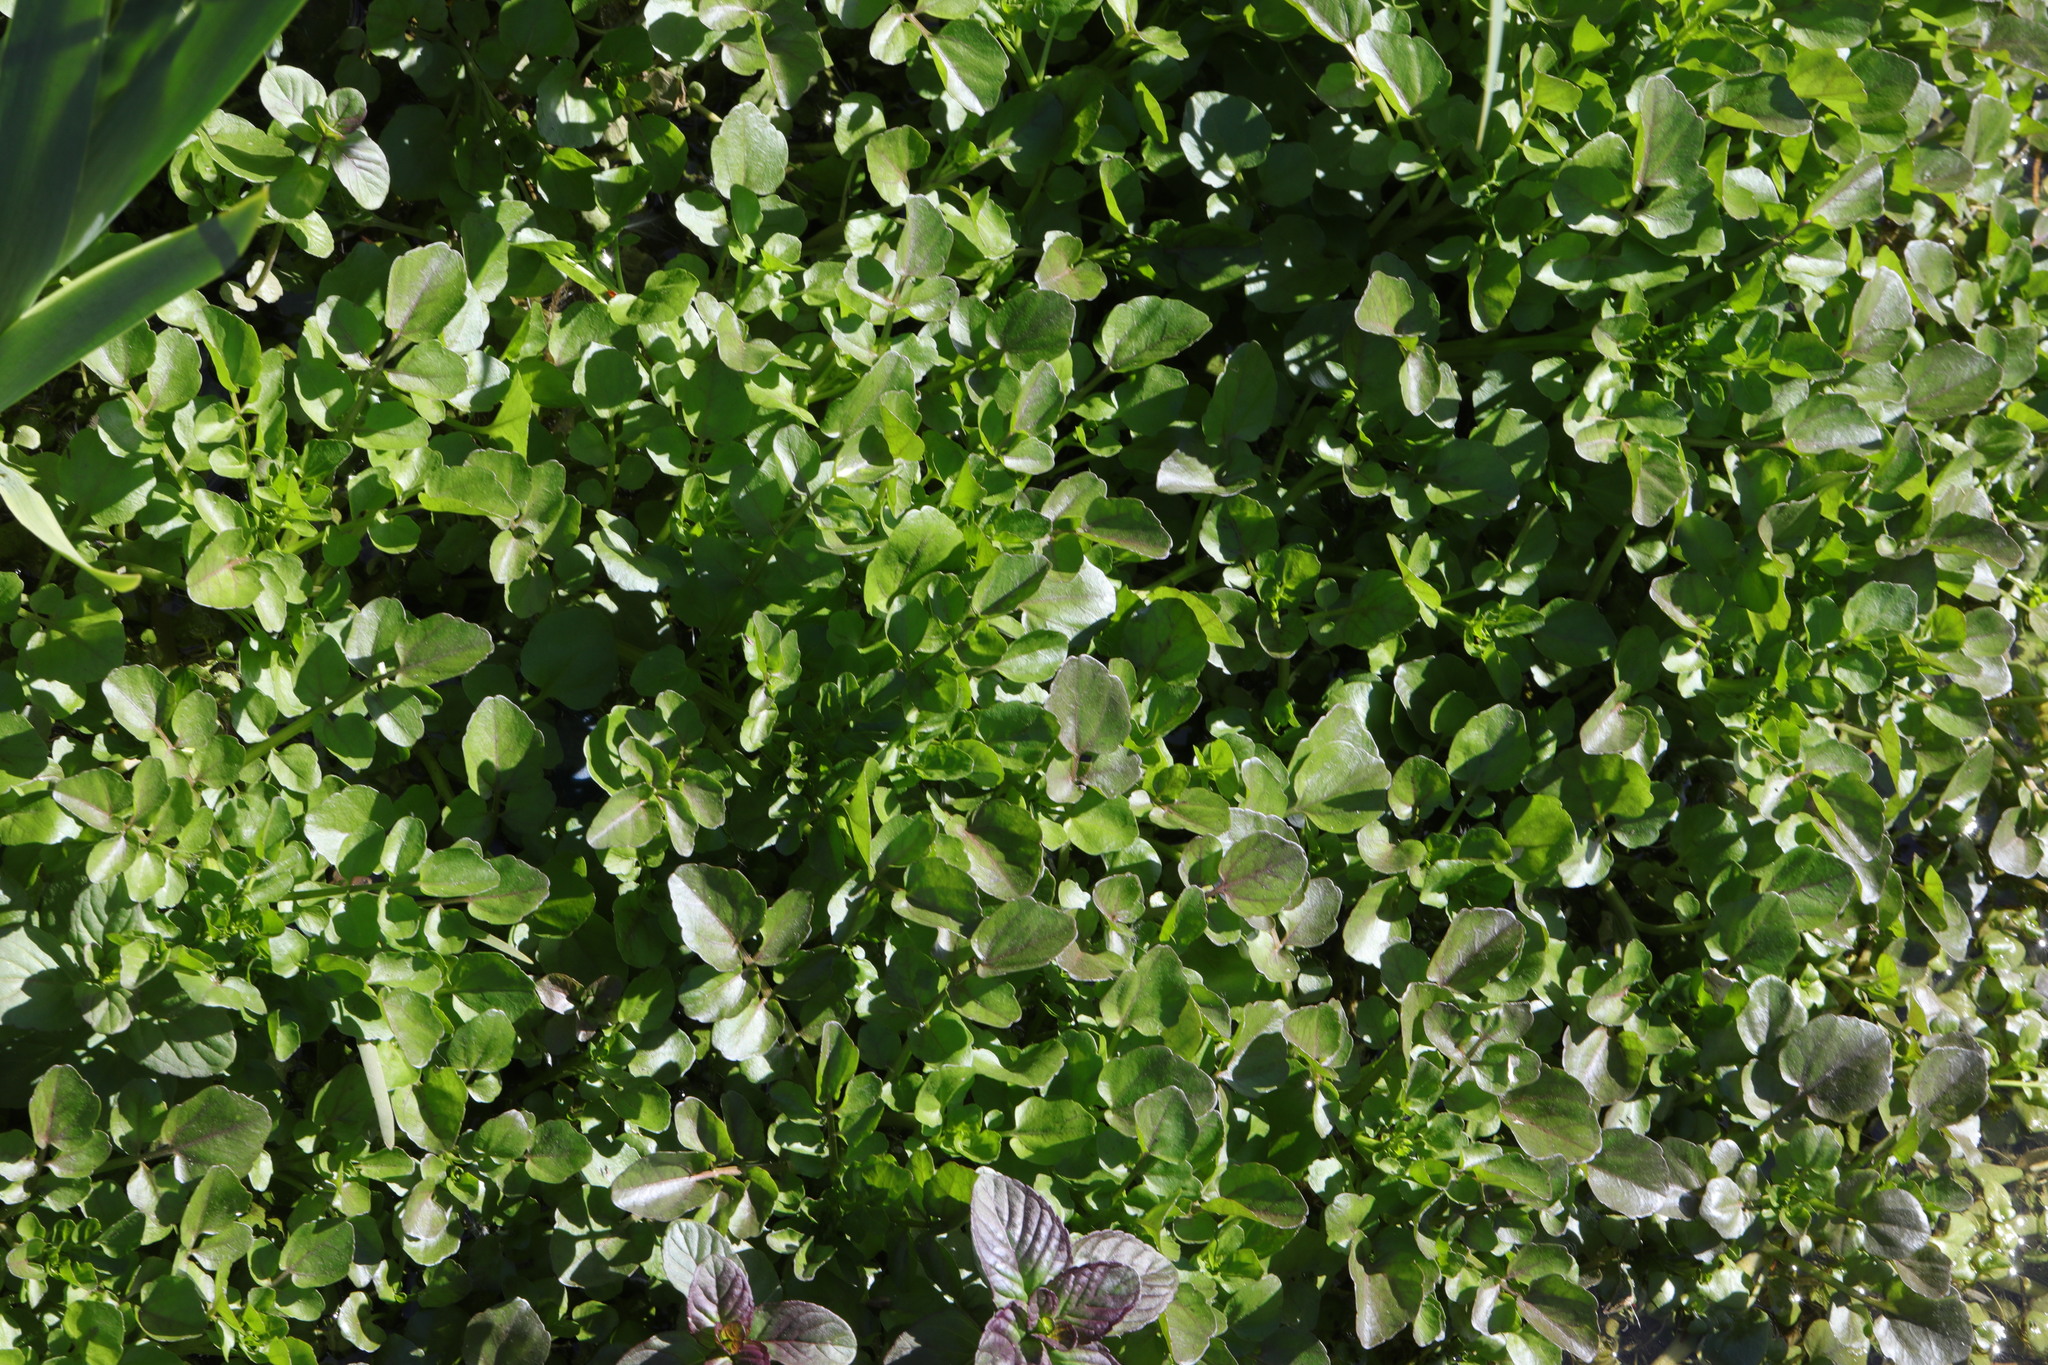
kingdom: Plantae
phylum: Tracheophyta
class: Magnoliopsida
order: Brassicales
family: Brassicaceae
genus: Nasturtium
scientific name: Nasturtium officinale
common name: Watercress
